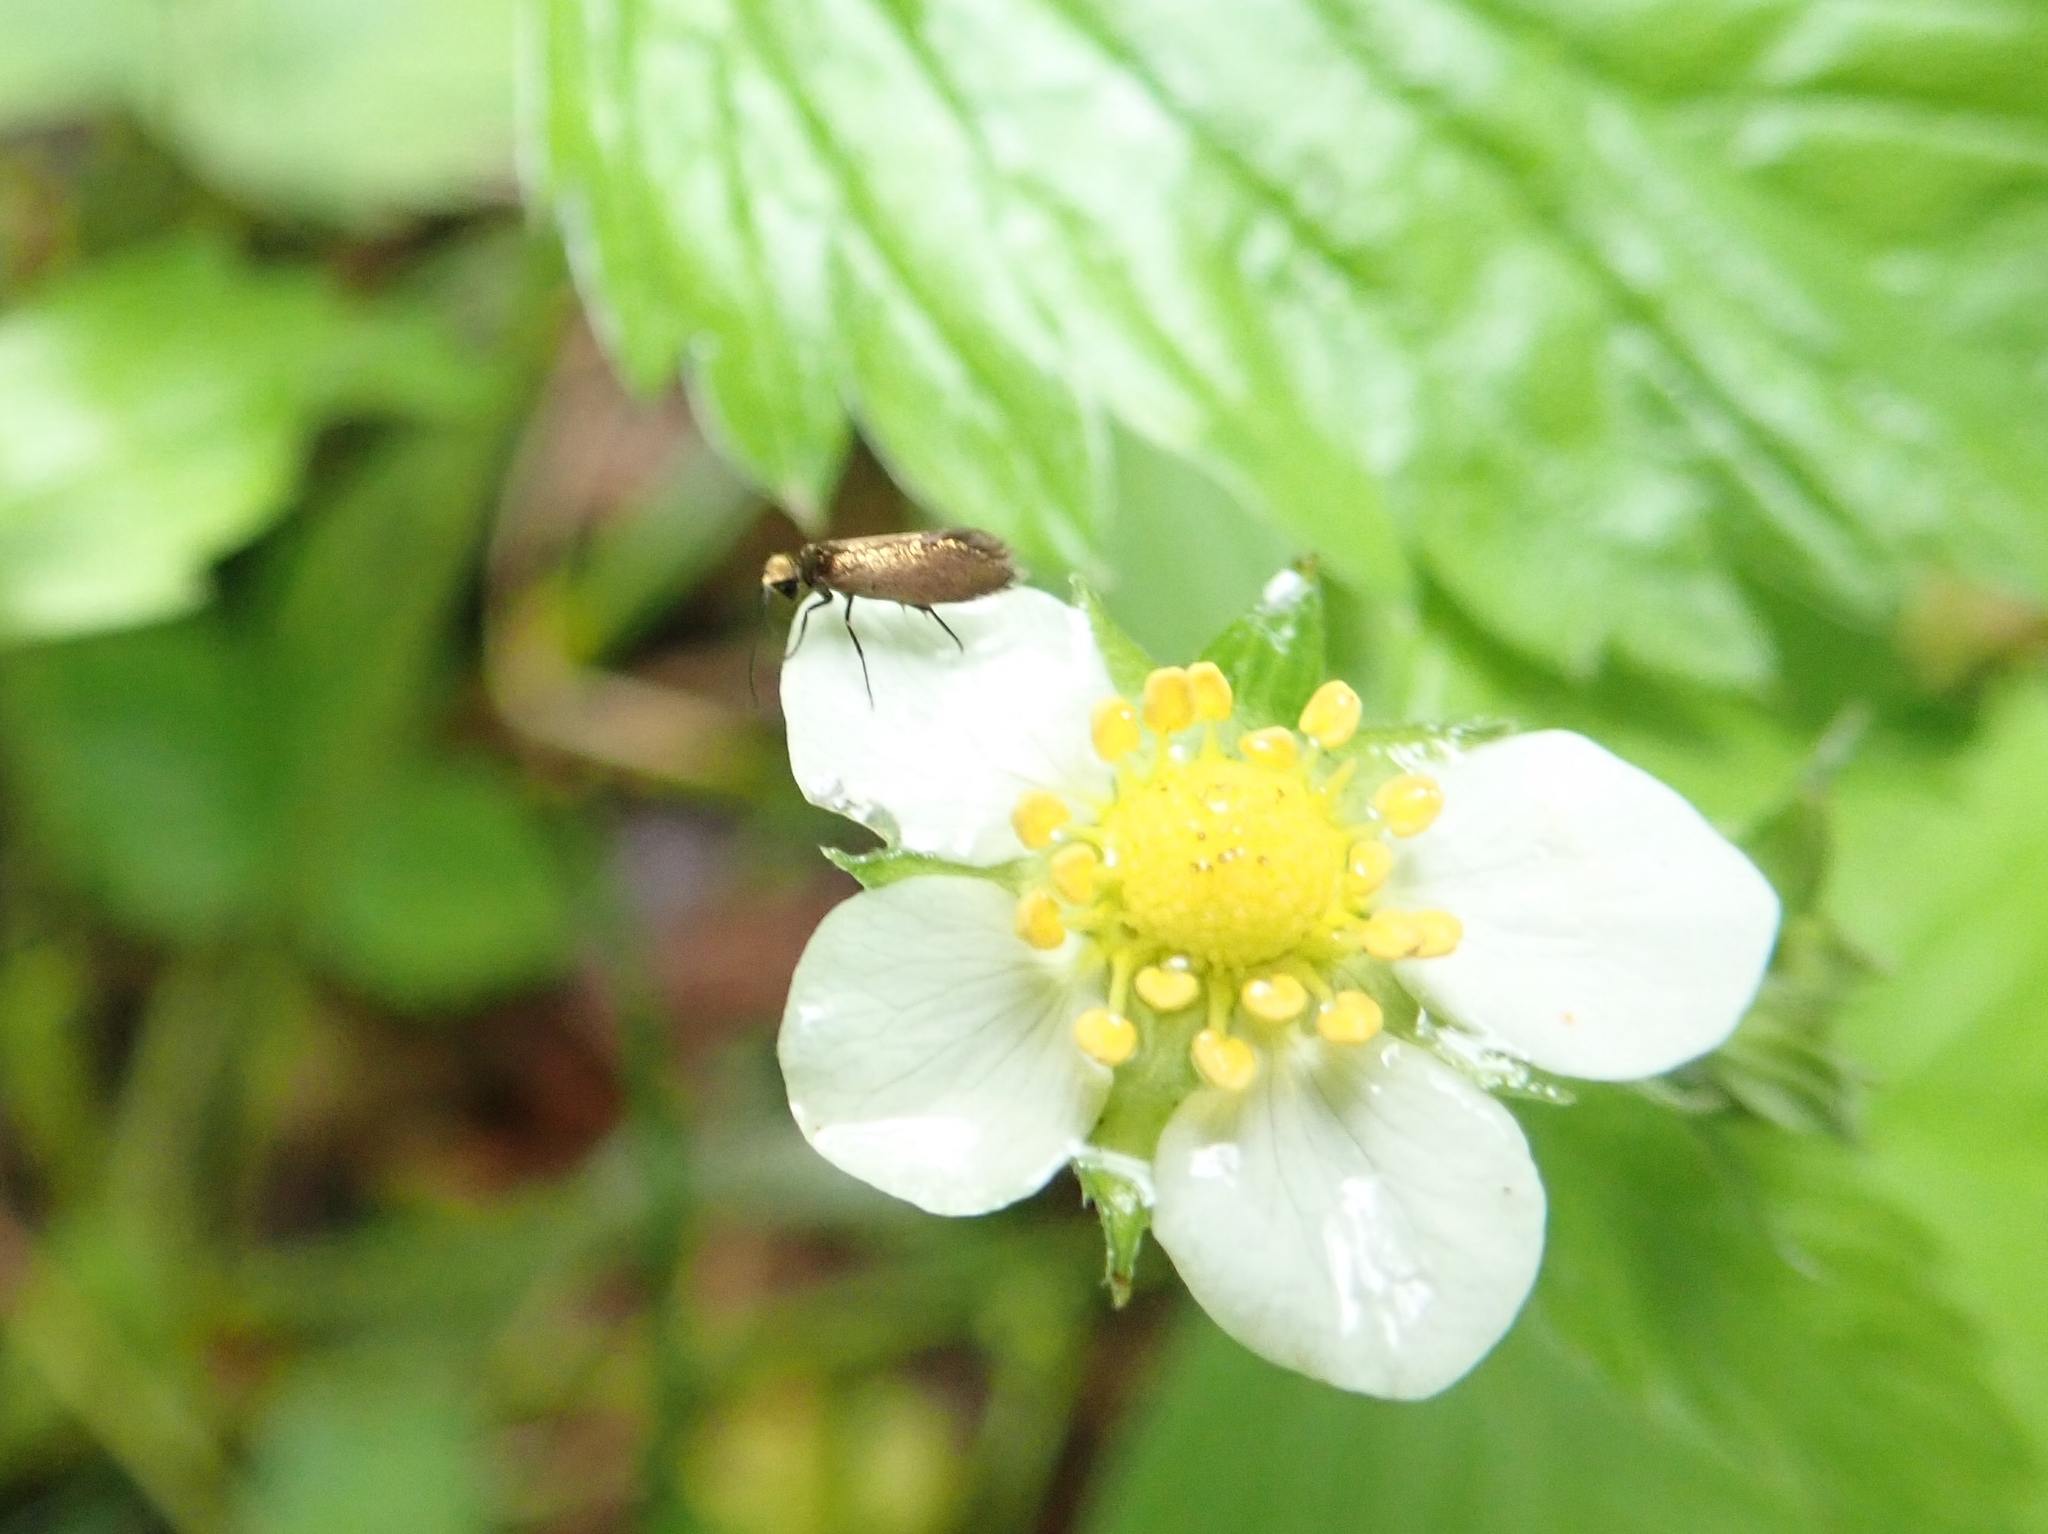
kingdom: Animalia
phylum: Arthropoda
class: Insecta
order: Lepidoptera
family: Micropterigidae
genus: Micropterix
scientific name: Micropterix calthella
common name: Plain gold
